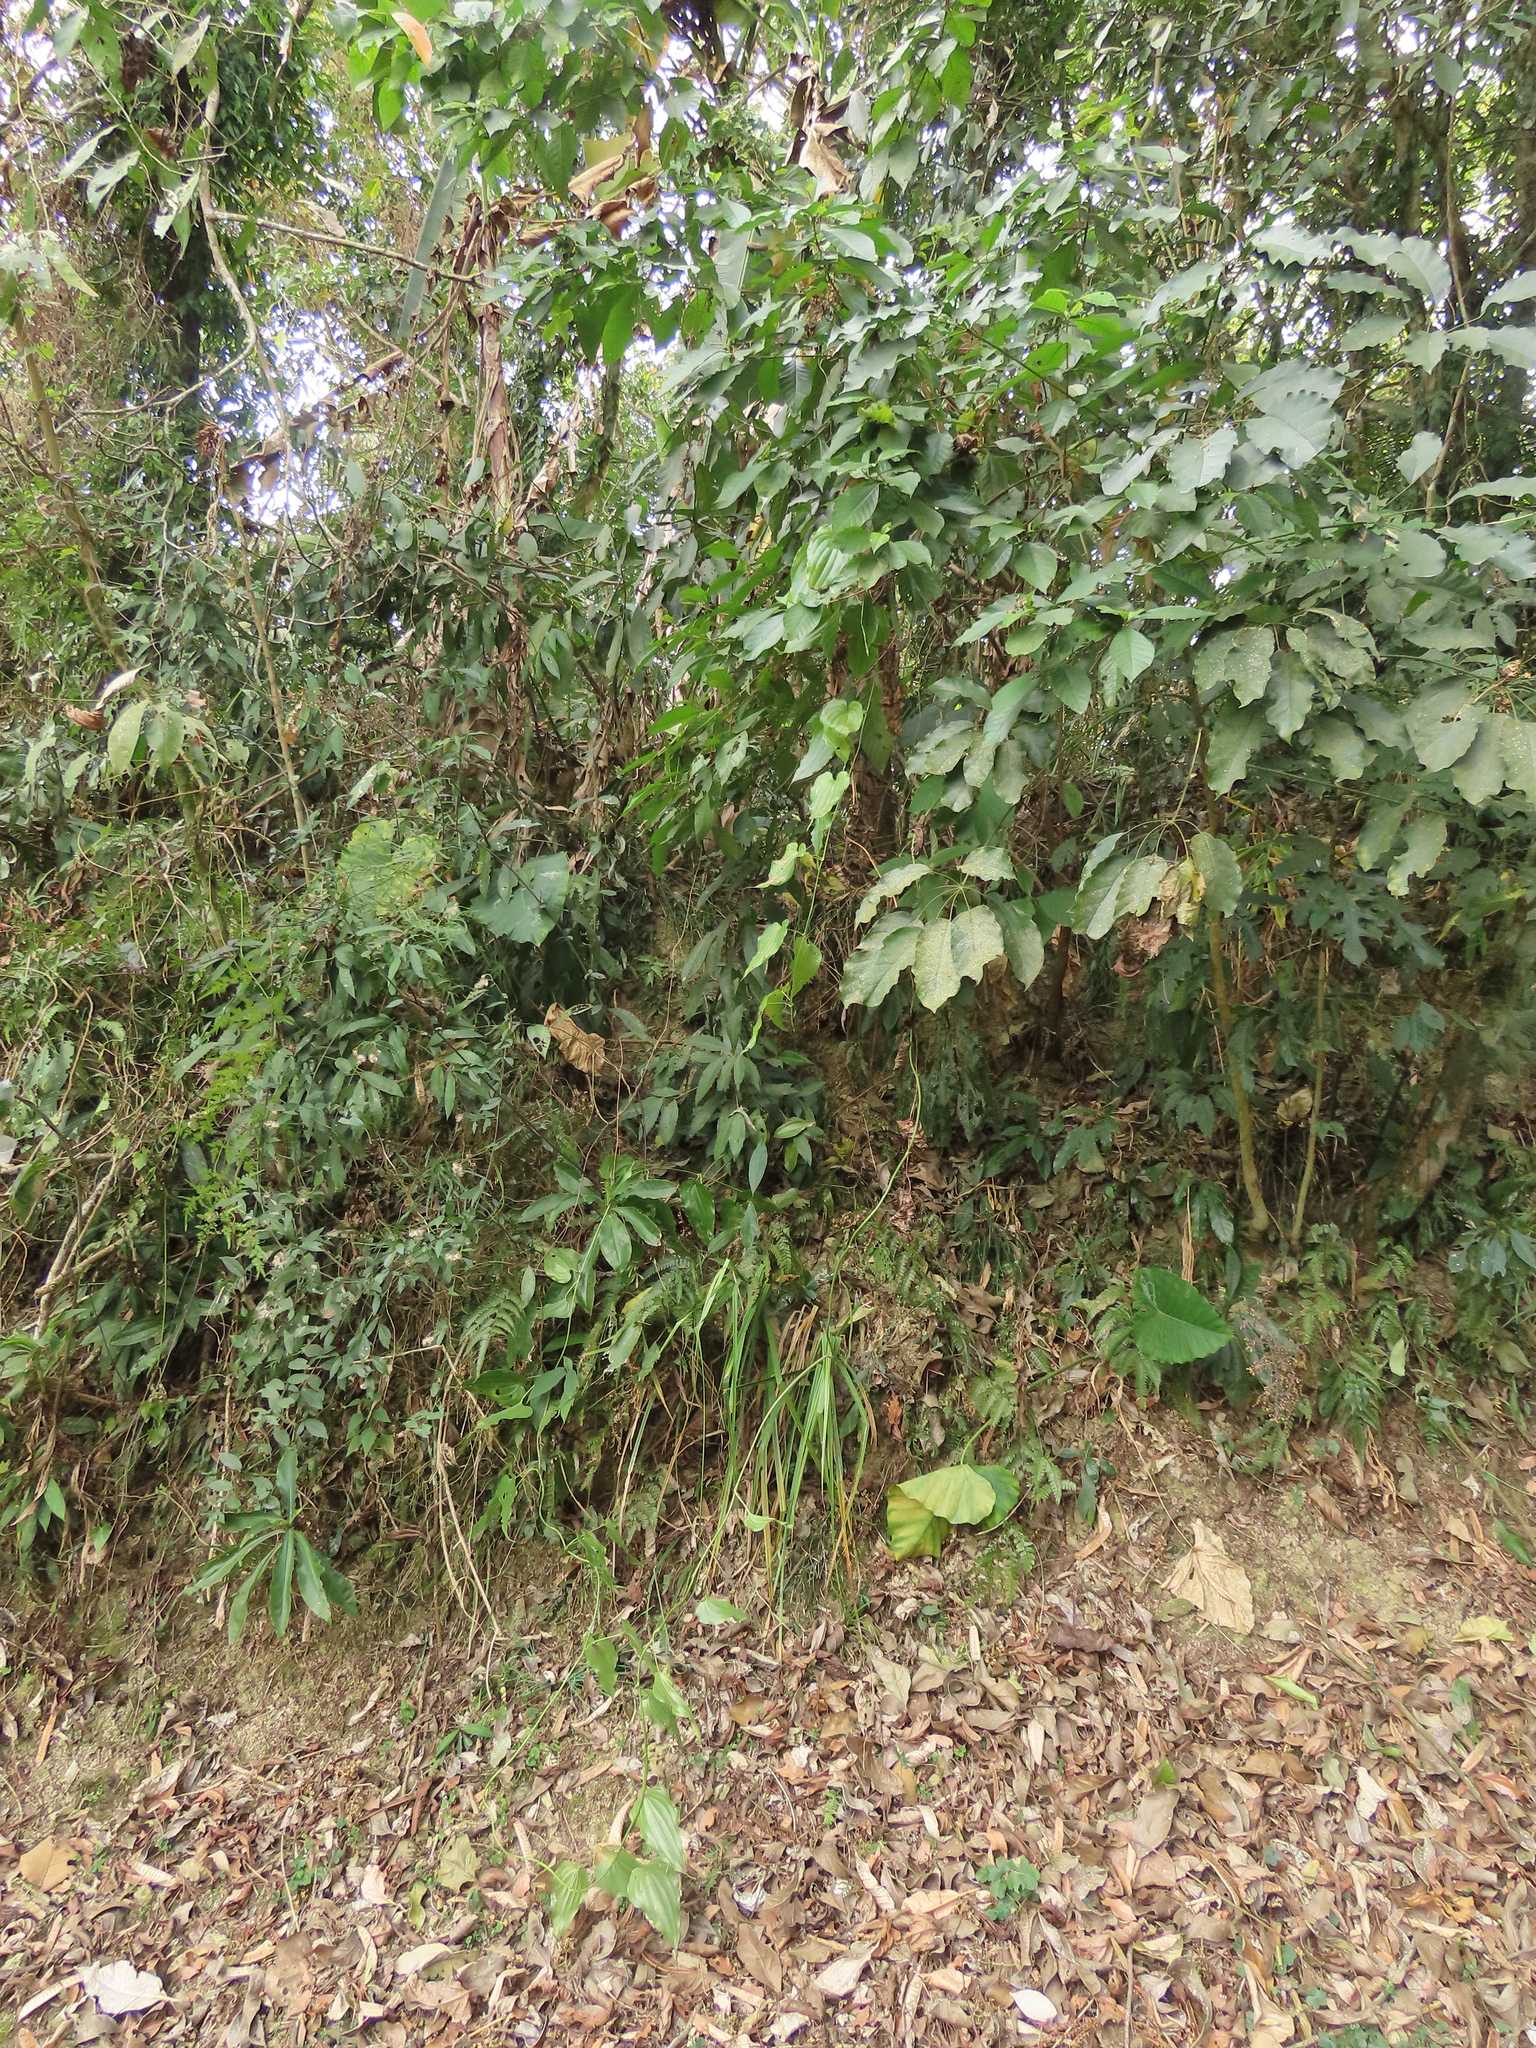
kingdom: Plantae
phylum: Tracheophyta
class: Liliopsida
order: Pandanales
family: Stemonaceae
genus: Stemona
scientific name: Stemona tuberosa
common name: Stemona
